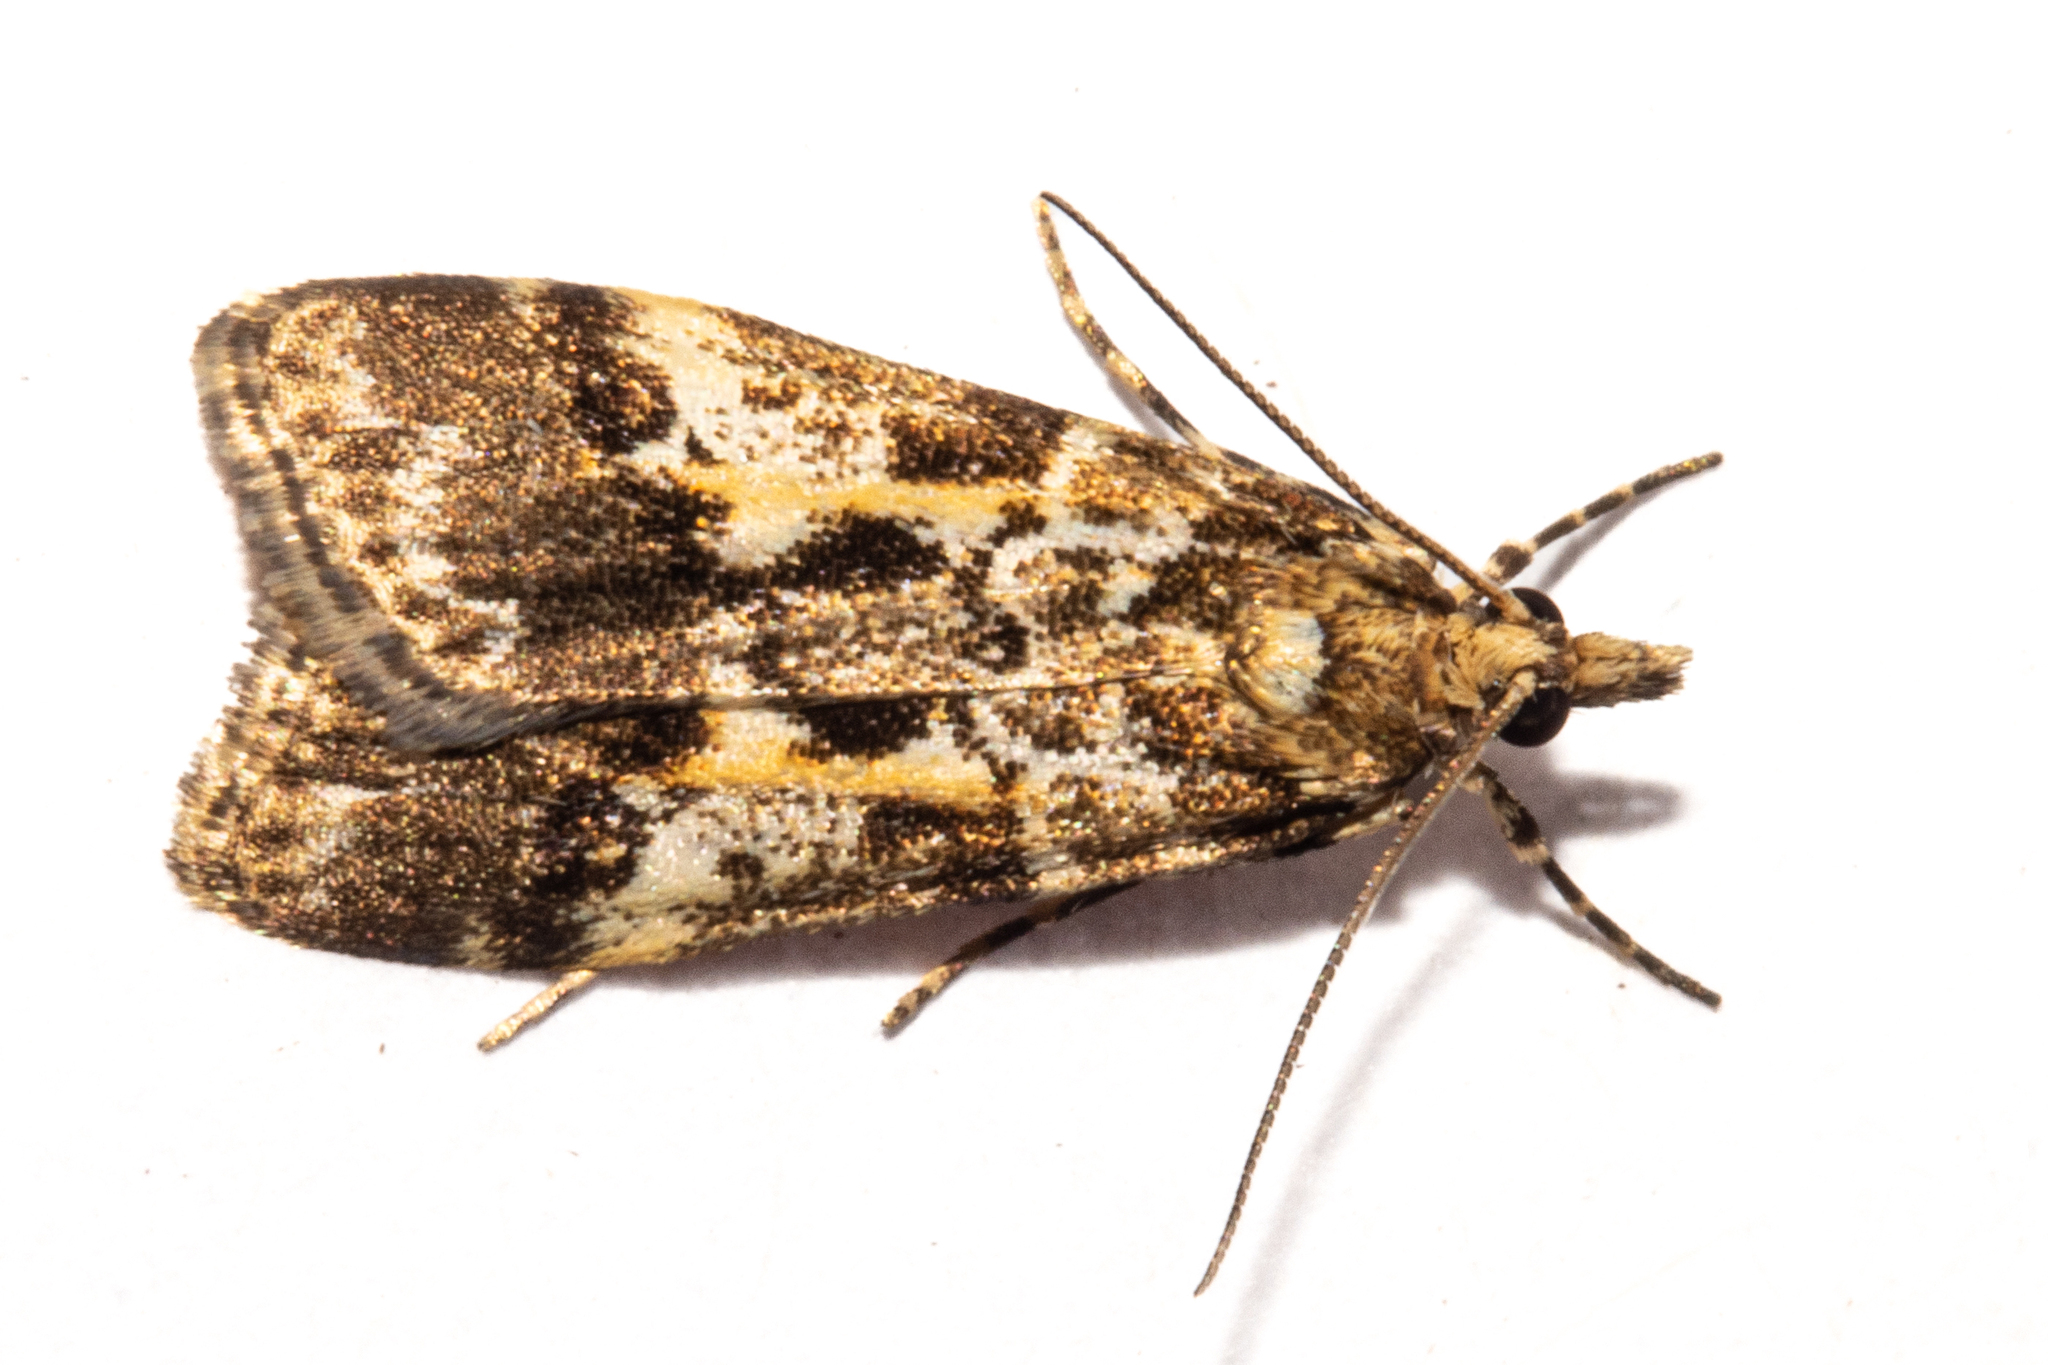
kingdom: Animalia
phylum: Arthropoda
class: Insecta
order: Lepidoptera
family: Crambidae
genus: Eudonia
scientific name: Eudonia characta
